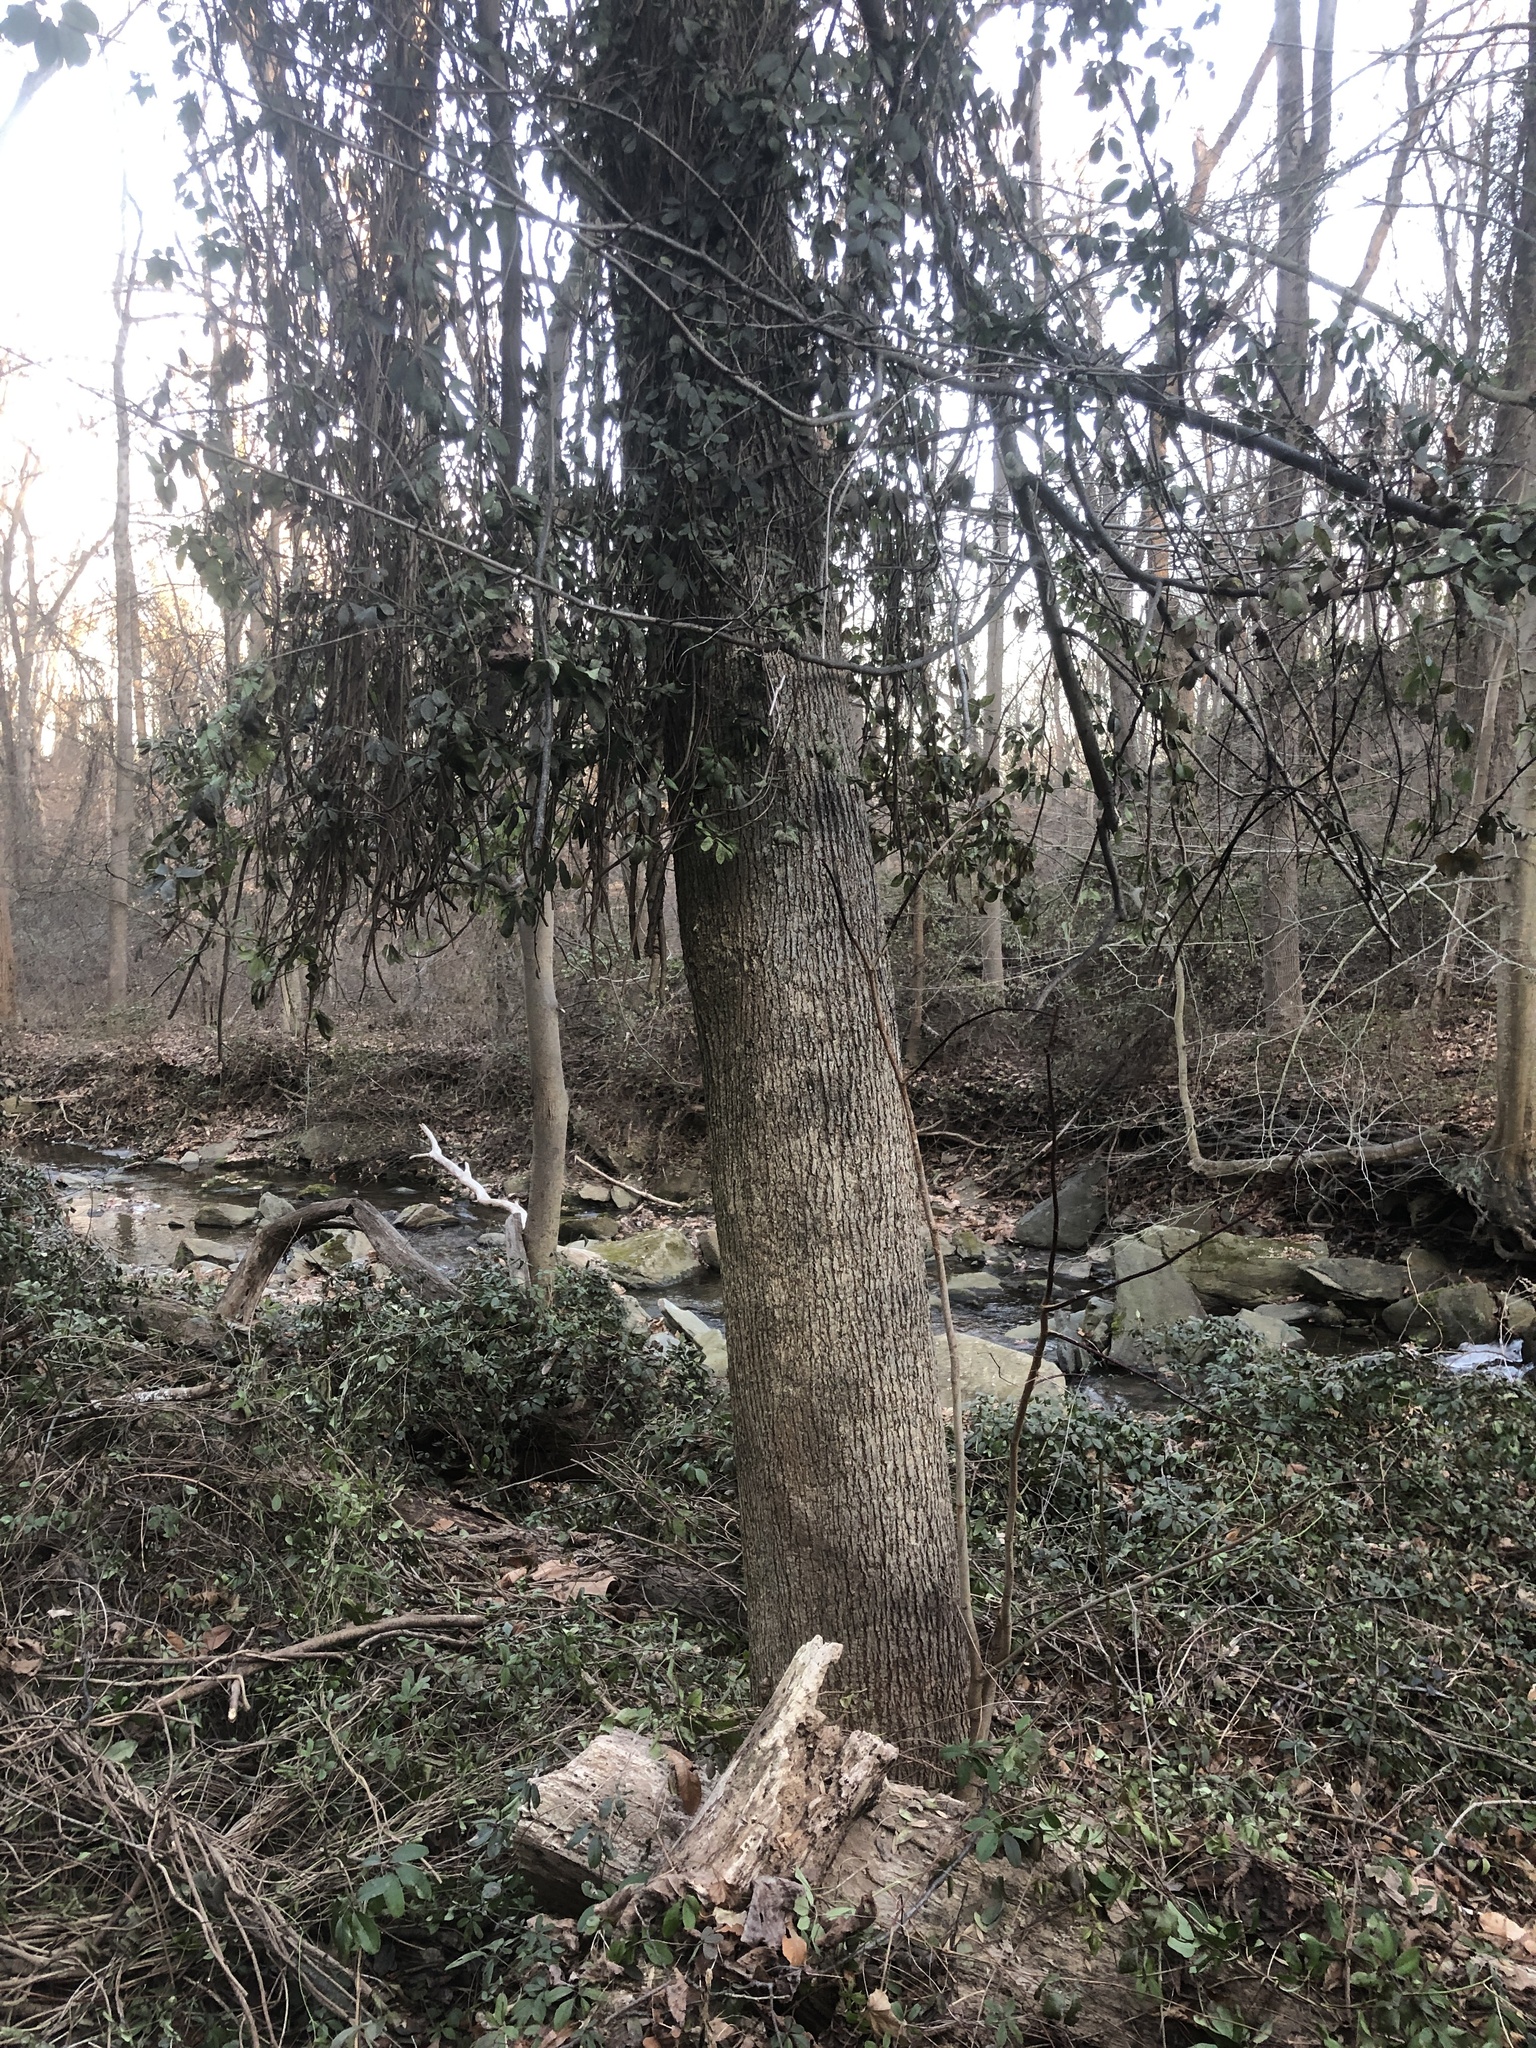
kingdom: Plantae
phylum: Tracheophyta
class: Magnoliopsida
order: Malvales
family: Malvaceae
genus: Tilia
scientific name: Tilia americana
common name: Basswood
